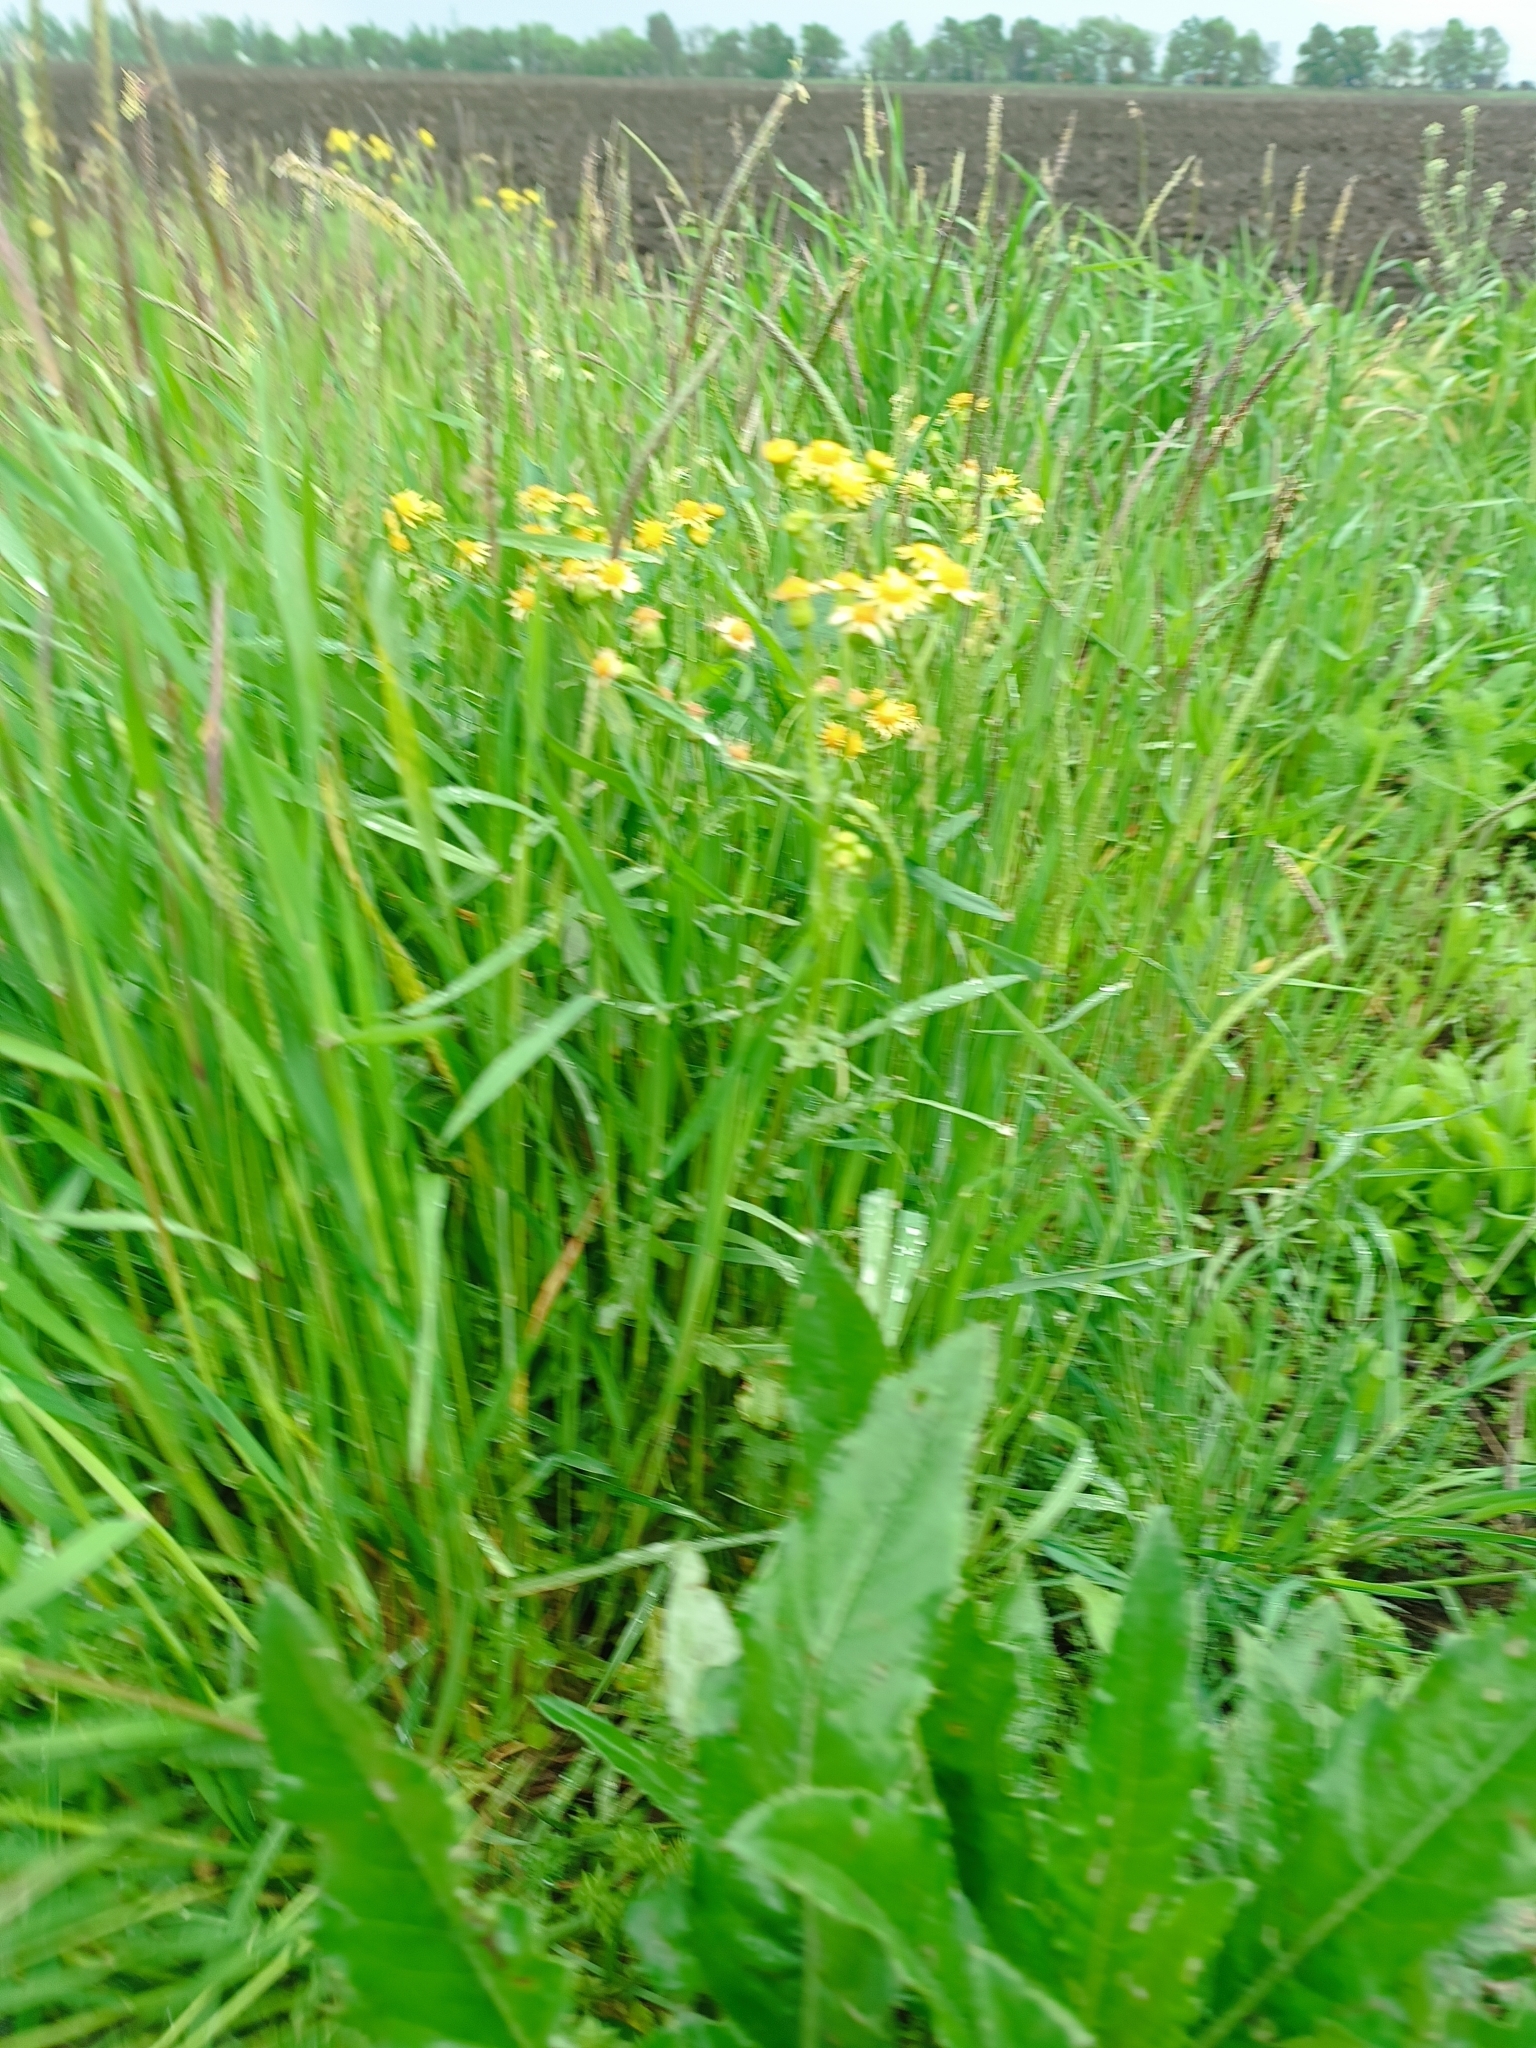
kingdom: Plantae
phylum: Tracheophyta
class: Magnoliopsida
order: Asterales
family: Asteraceae
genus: Senecio
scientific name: Senecio vernalis
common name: Eastern groundsel
